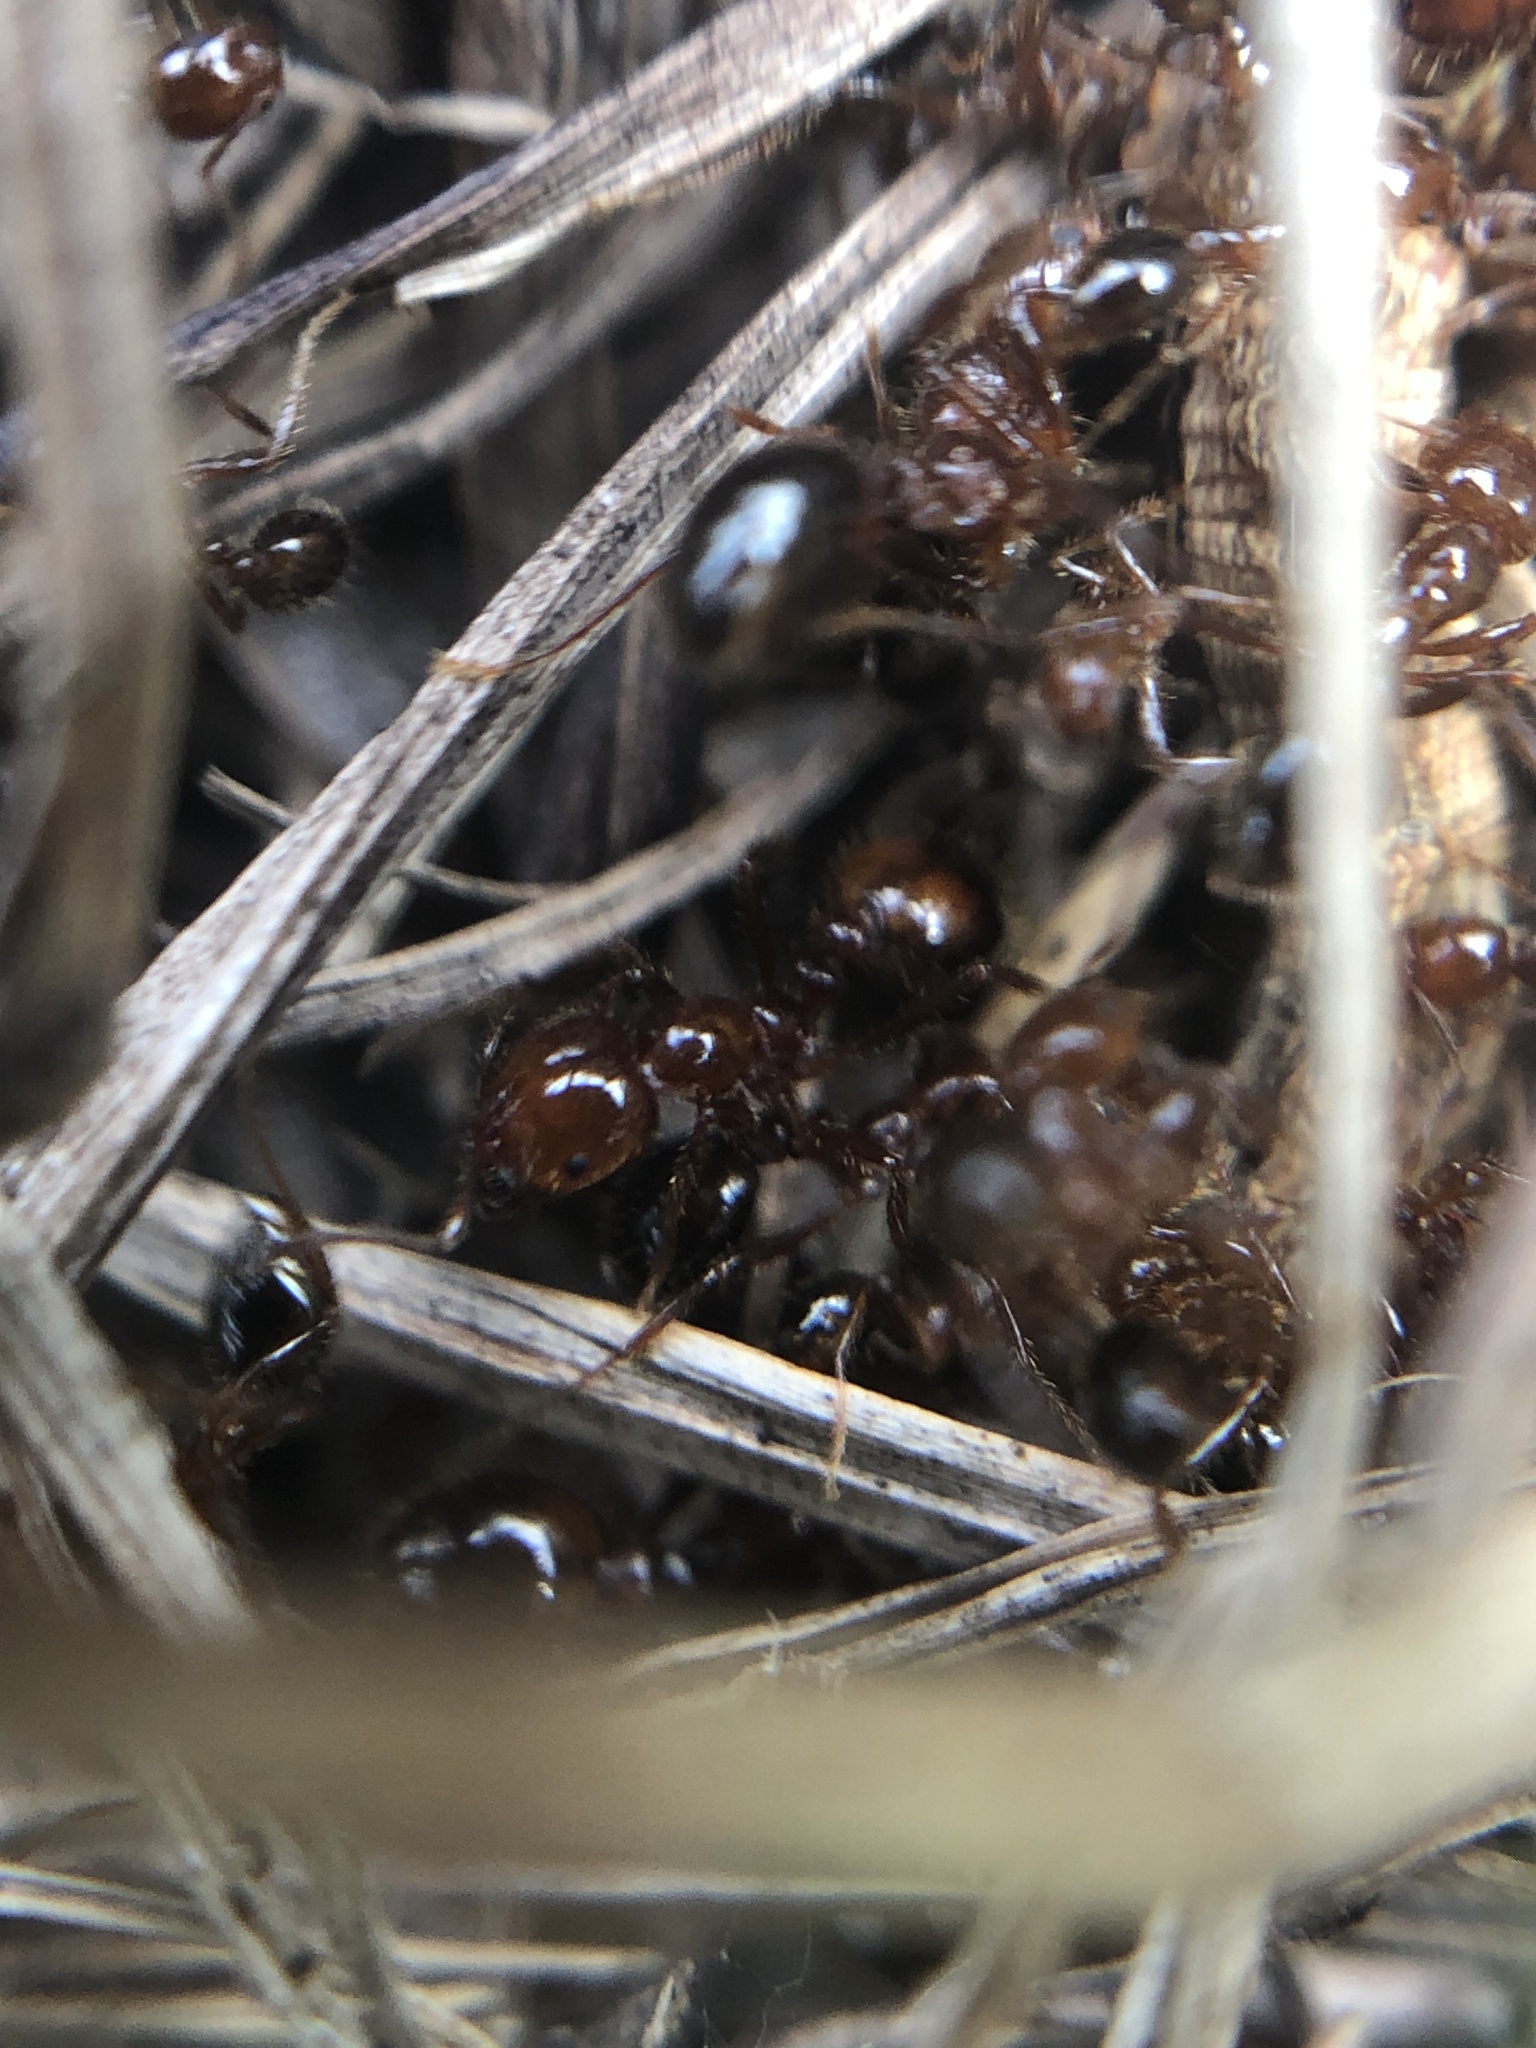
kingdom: Animalia
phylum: Arthropoda
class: Insecta
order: Hymenoptera
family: Formicidae
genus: Solenopsis
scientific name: Solenopsis invicta
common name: Red imported fire ant
